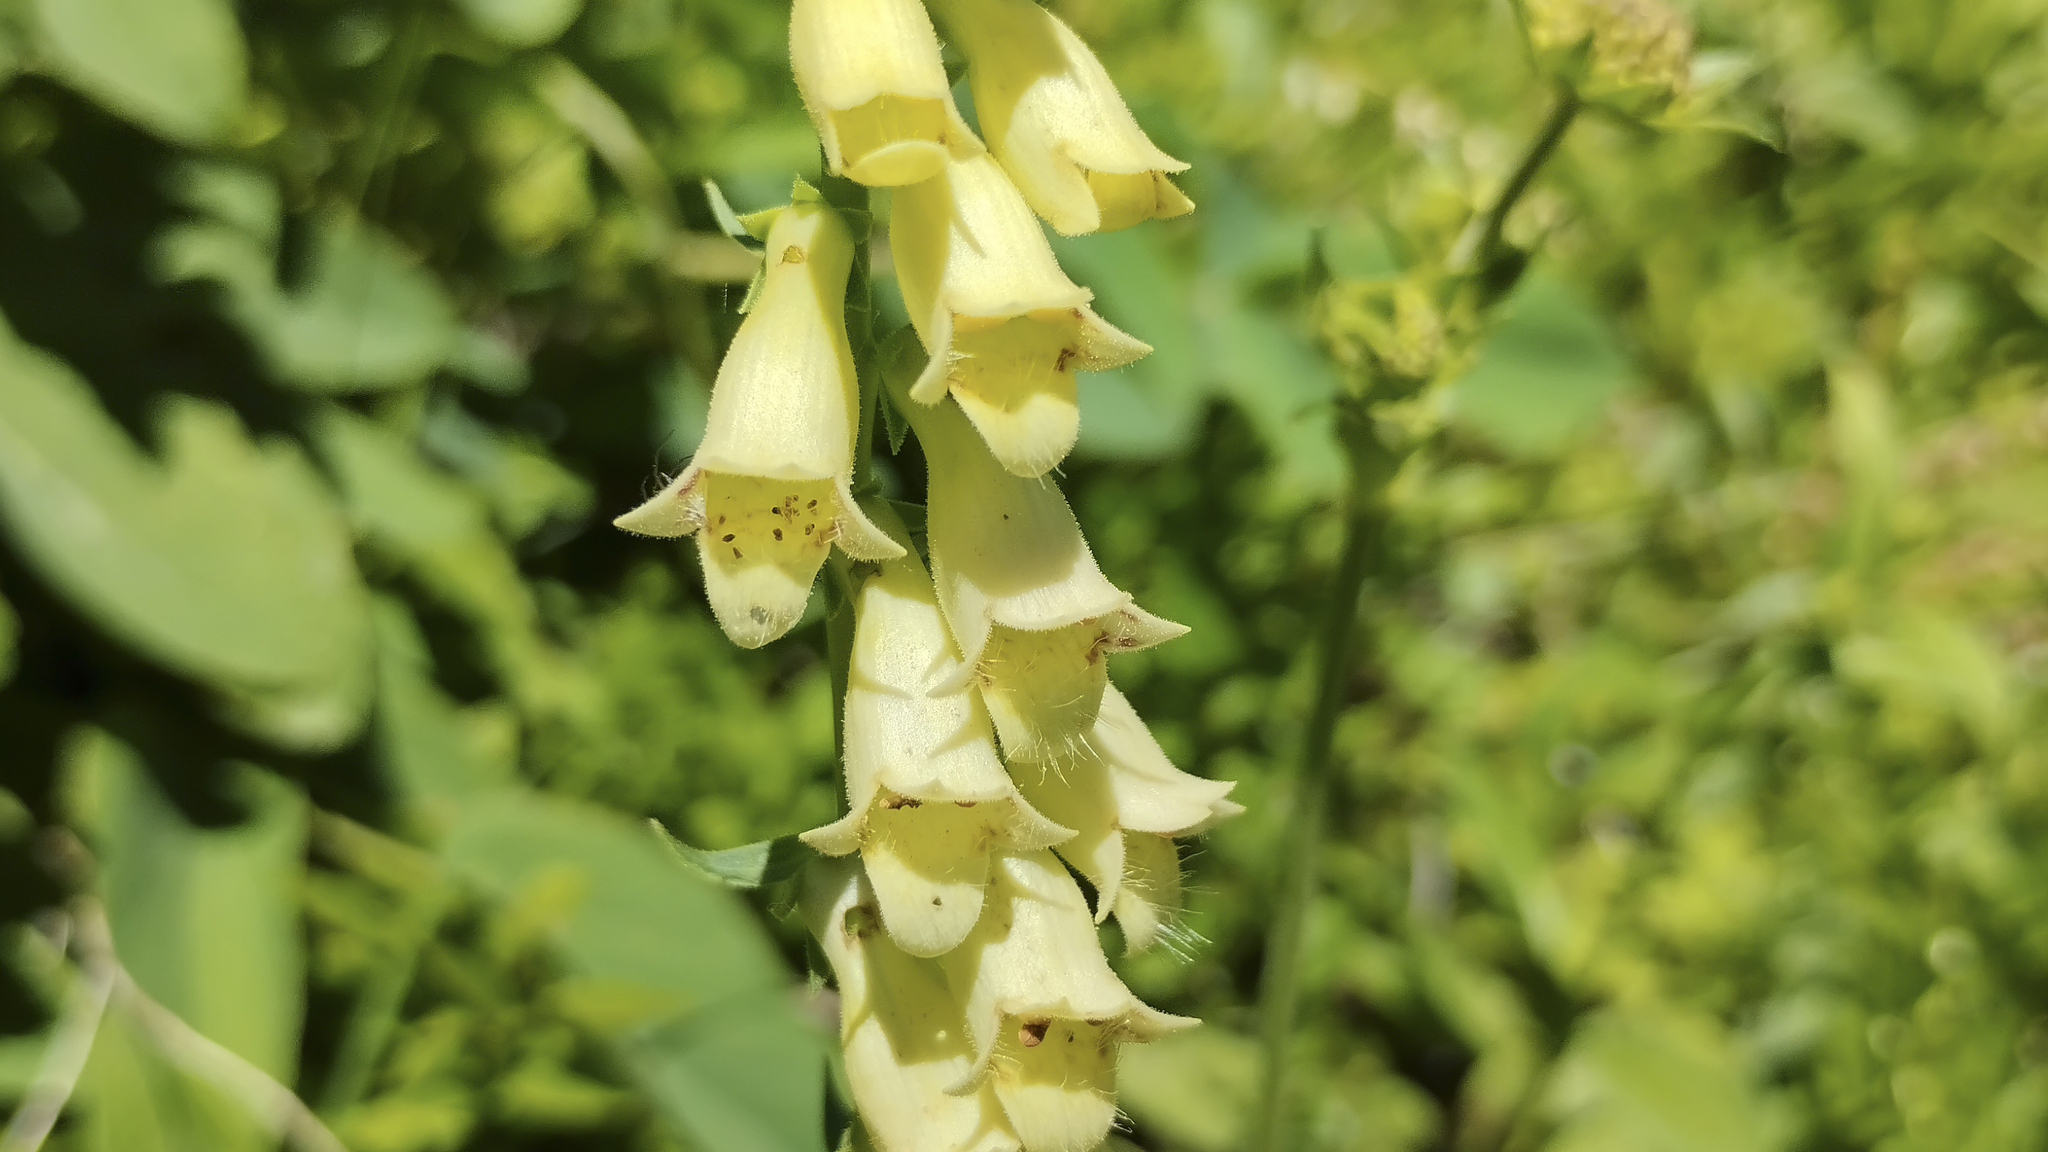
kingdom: Plantae
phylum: Tracheophyta
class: Magnoliopsida
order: Lamiales
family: Plantaginaceae
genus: Digitalis
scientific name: Digitalis lutea
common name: Straw foxglove
